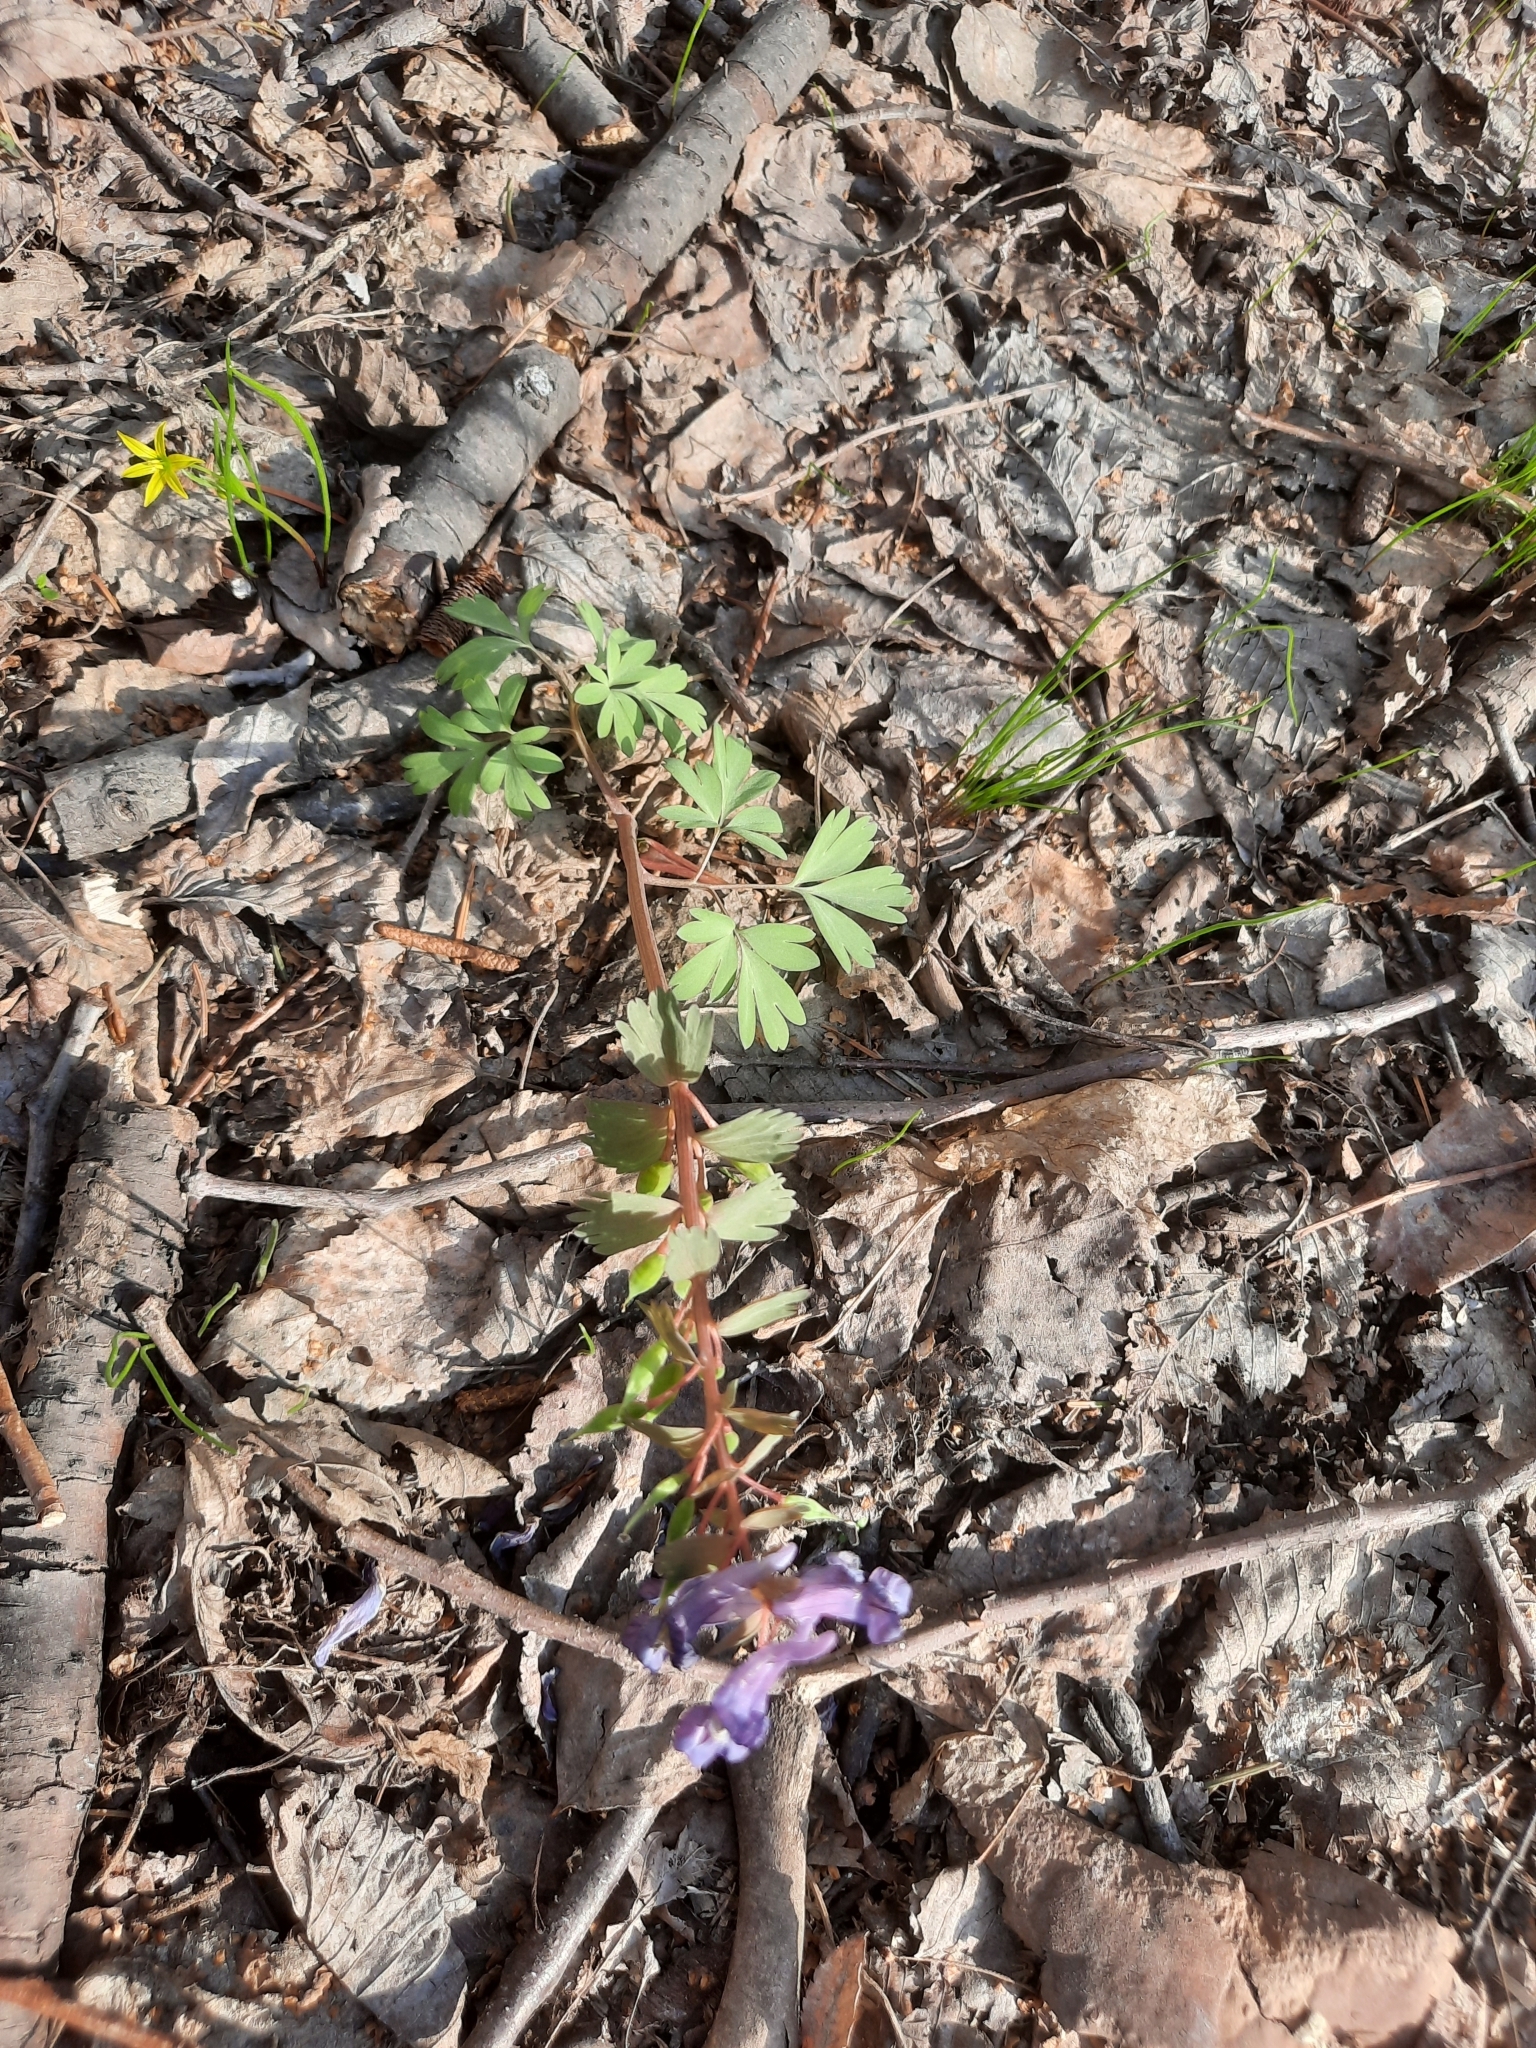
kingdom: Plantae
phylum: Tracheophyta
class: Magnoliopsida
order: Ranunculales
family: Papaveraceae
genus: Corydalis
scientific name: Corydalis solida
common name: Bird-in-a-bush
